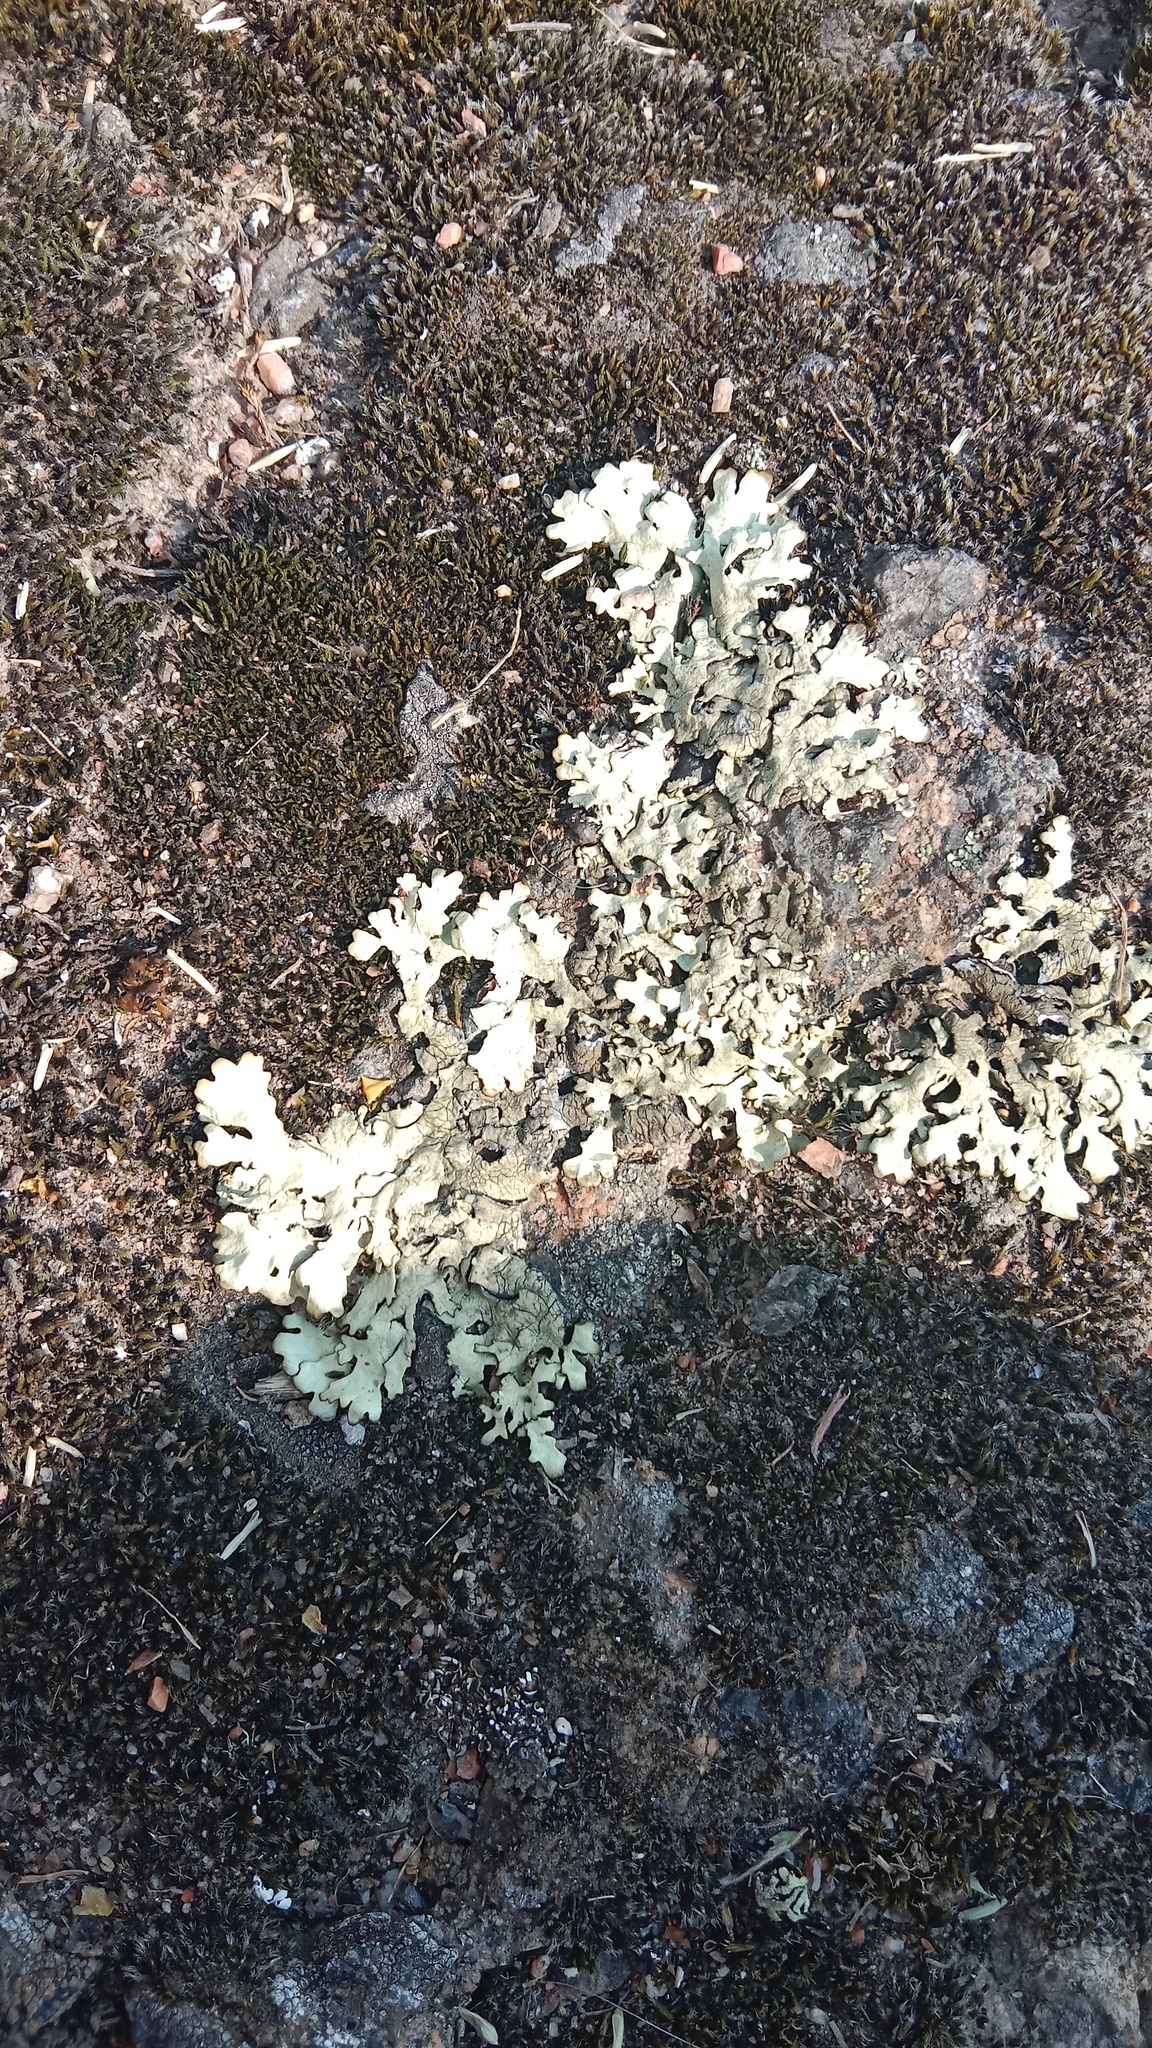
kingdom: Fungi
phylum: Ascomycota
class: Lecanoromycetes
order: Lecanorales
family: Parmeliaceae
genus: Xanthoparmelia
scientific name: Xanthoparmelia stenophylla
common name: Shingled rock shield
